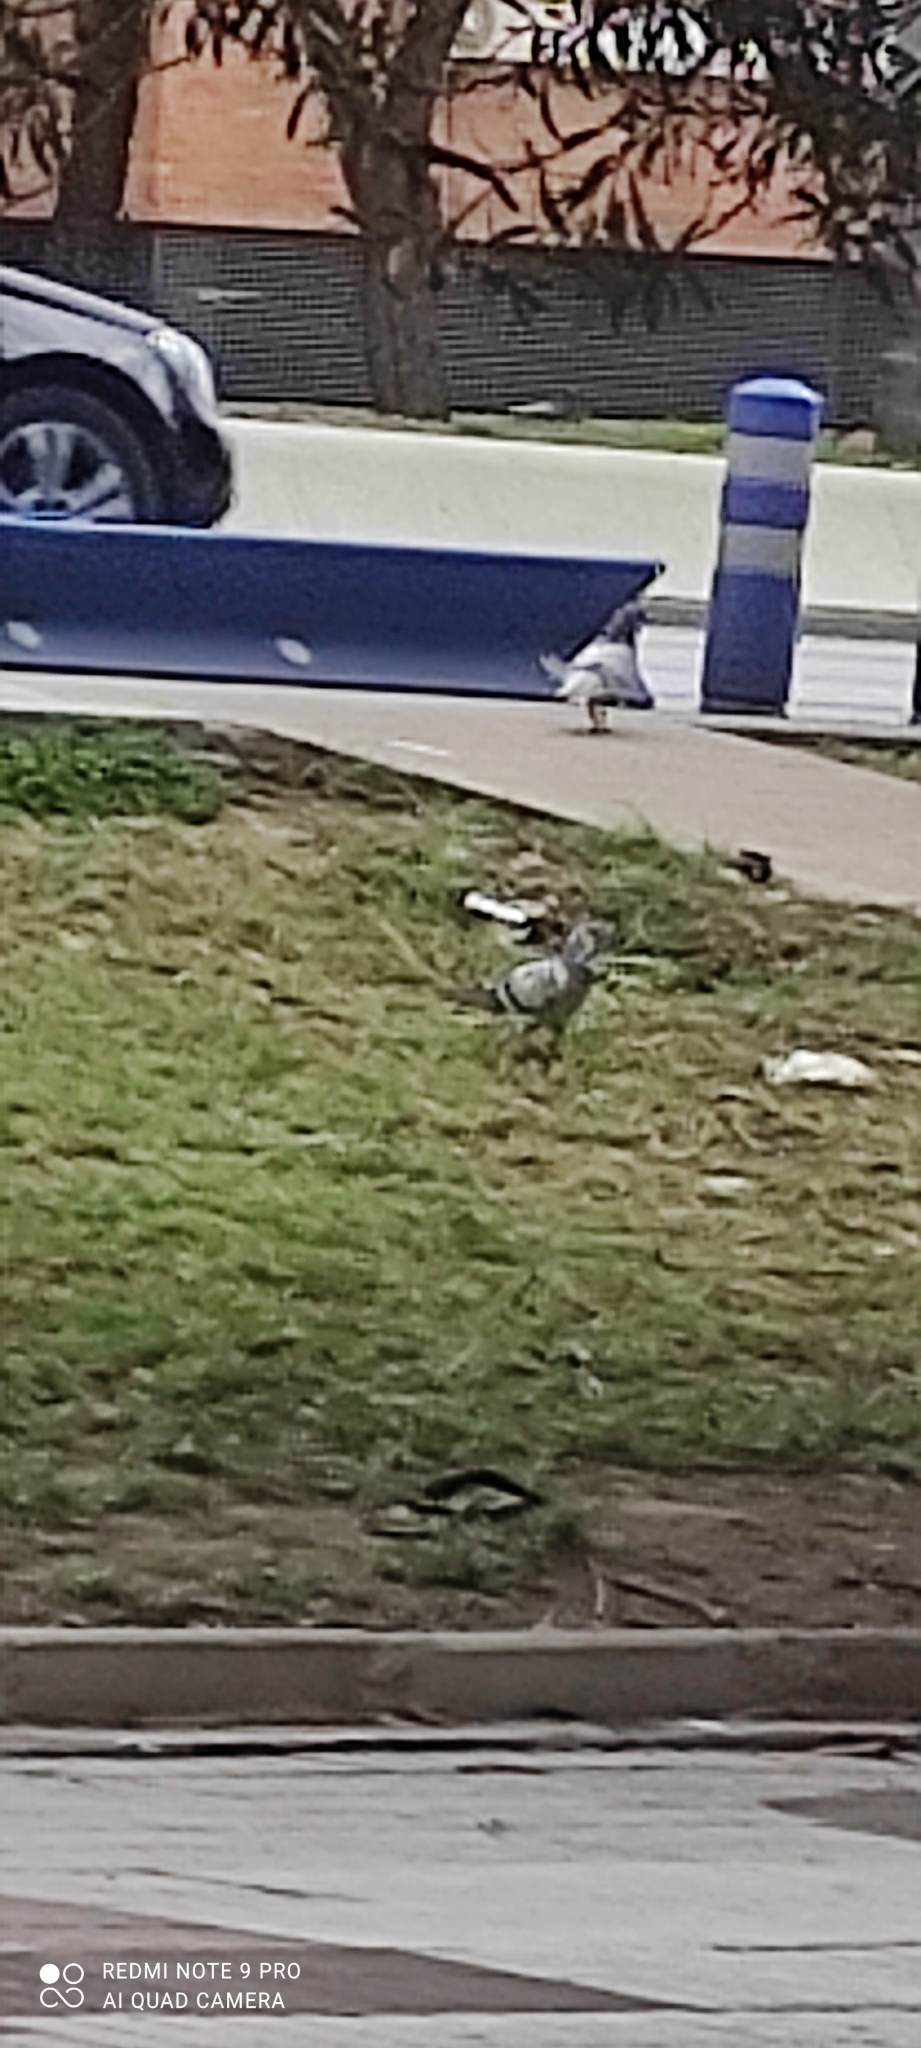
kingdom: Animalia
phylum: Chordata
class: Aves
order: Columbiformes
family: Columbidae
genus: Columba
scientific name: Columba livia
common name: Rock pigeon
